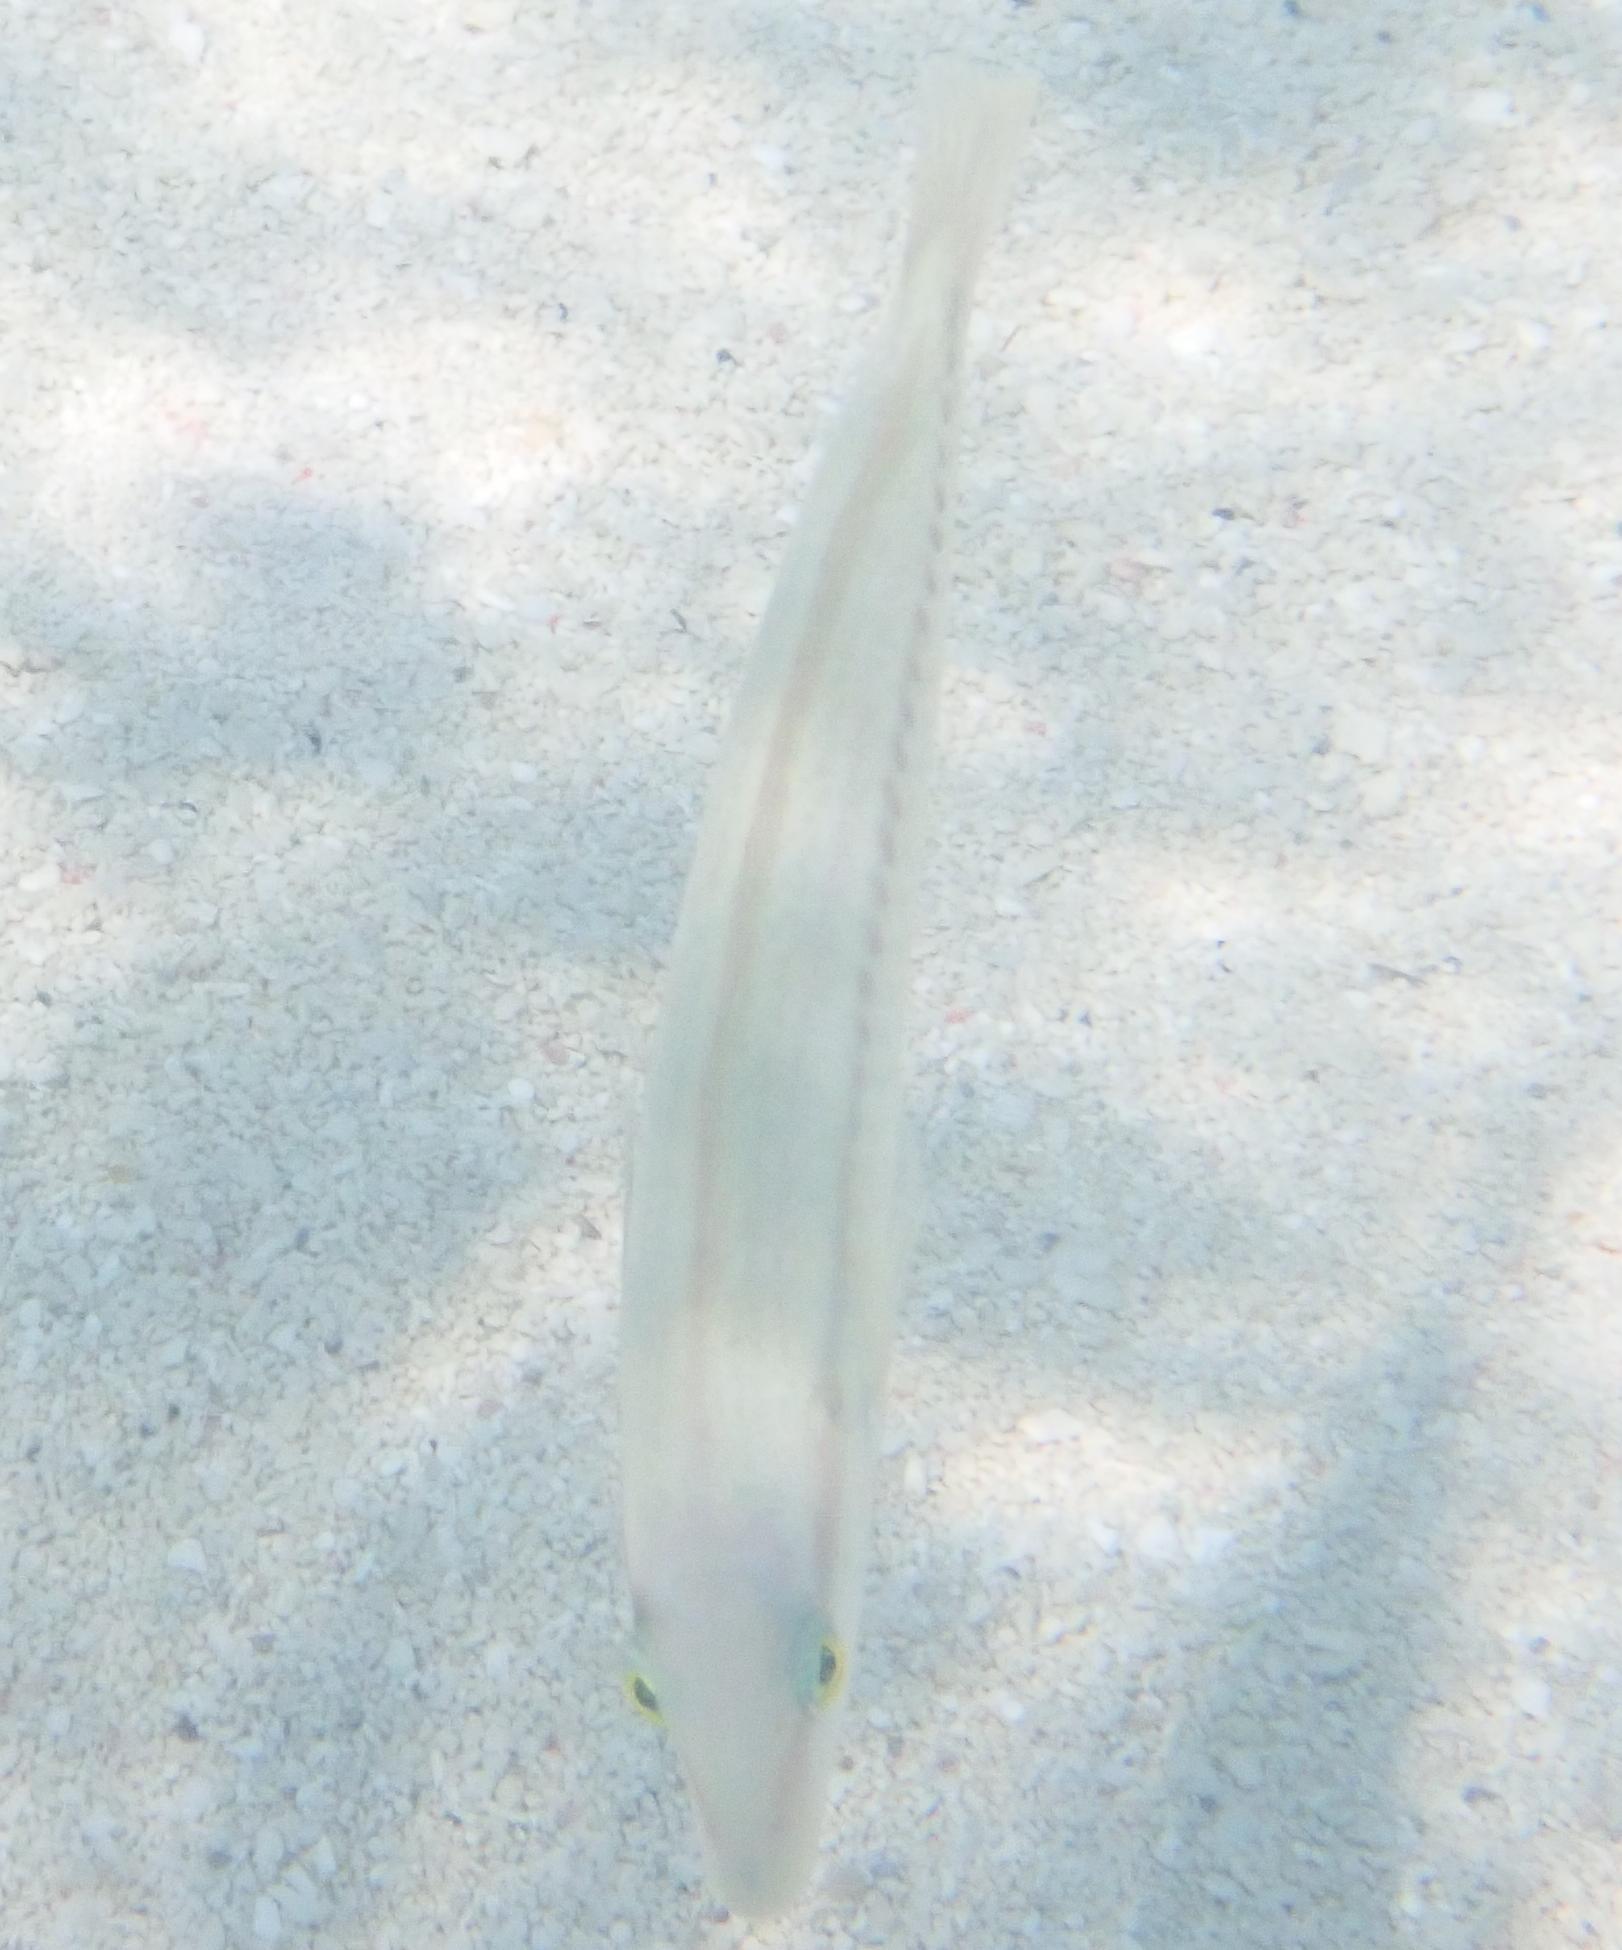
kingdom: Animalia
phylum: Chordata
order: Perciformes
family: Labridae
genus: Halichoeres
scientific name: Halichoeres bivittatus
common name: Slippery dick
